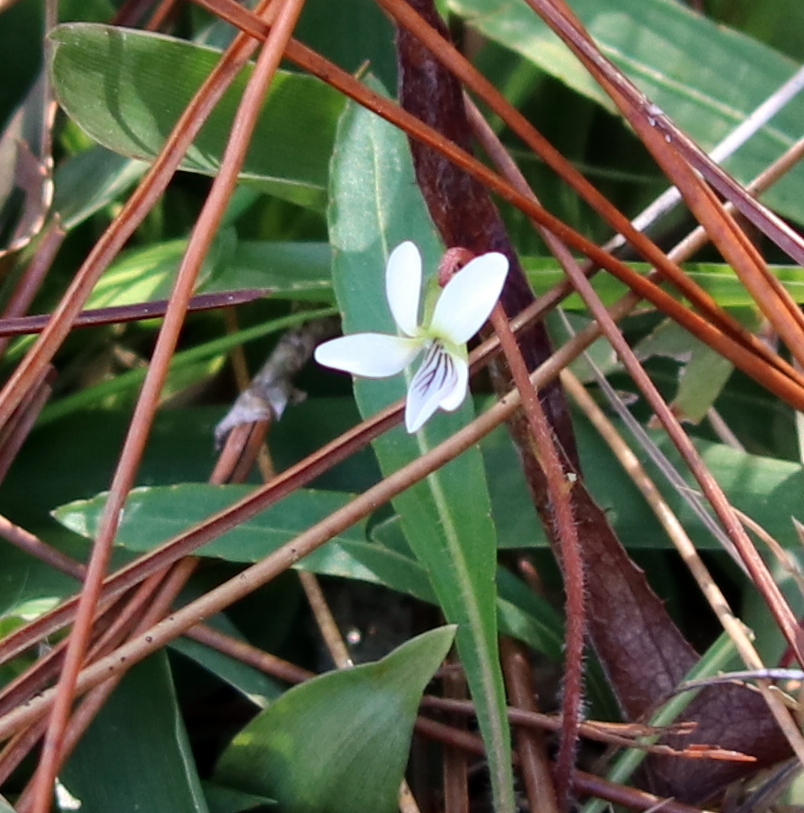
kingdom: Plantae
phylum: Tracheophyta
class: Magnoliopsida
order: Malpighiales
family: Violaceae
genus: Viola
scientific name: Viola lanceolata
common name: Bog white violet
